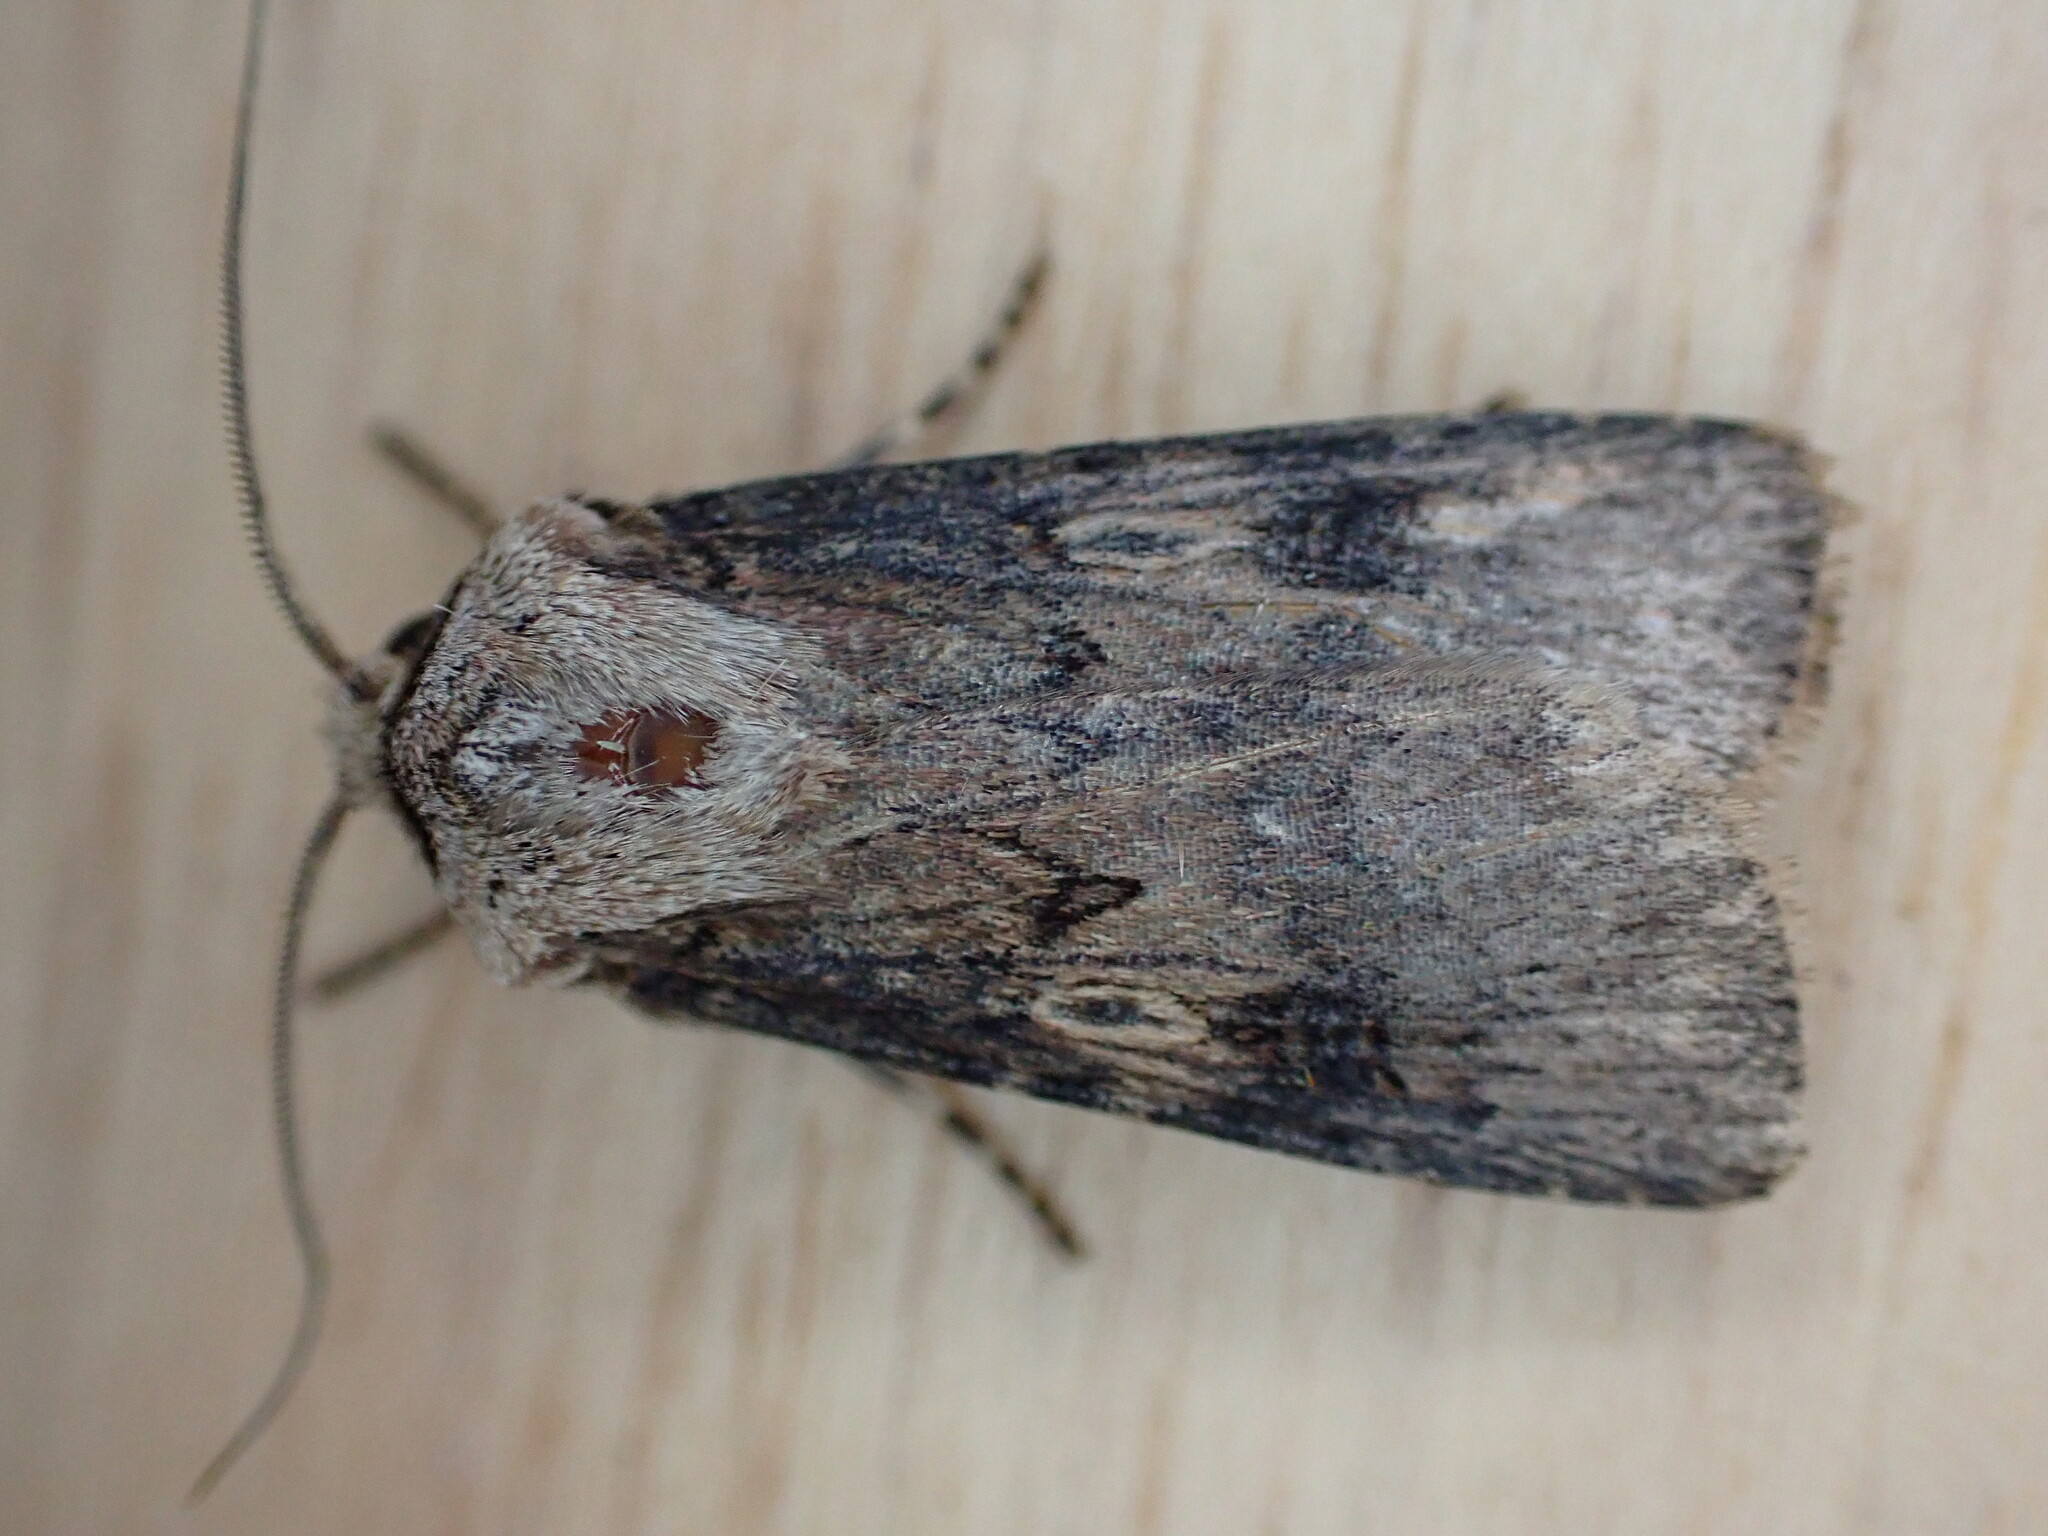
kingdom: Animalia
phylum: Arthropoda
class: Insecta
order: Lepidoptera
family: Noctuidae
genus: Agrotis
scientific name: Agrotis puta
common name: Shuttle-shaped dart
